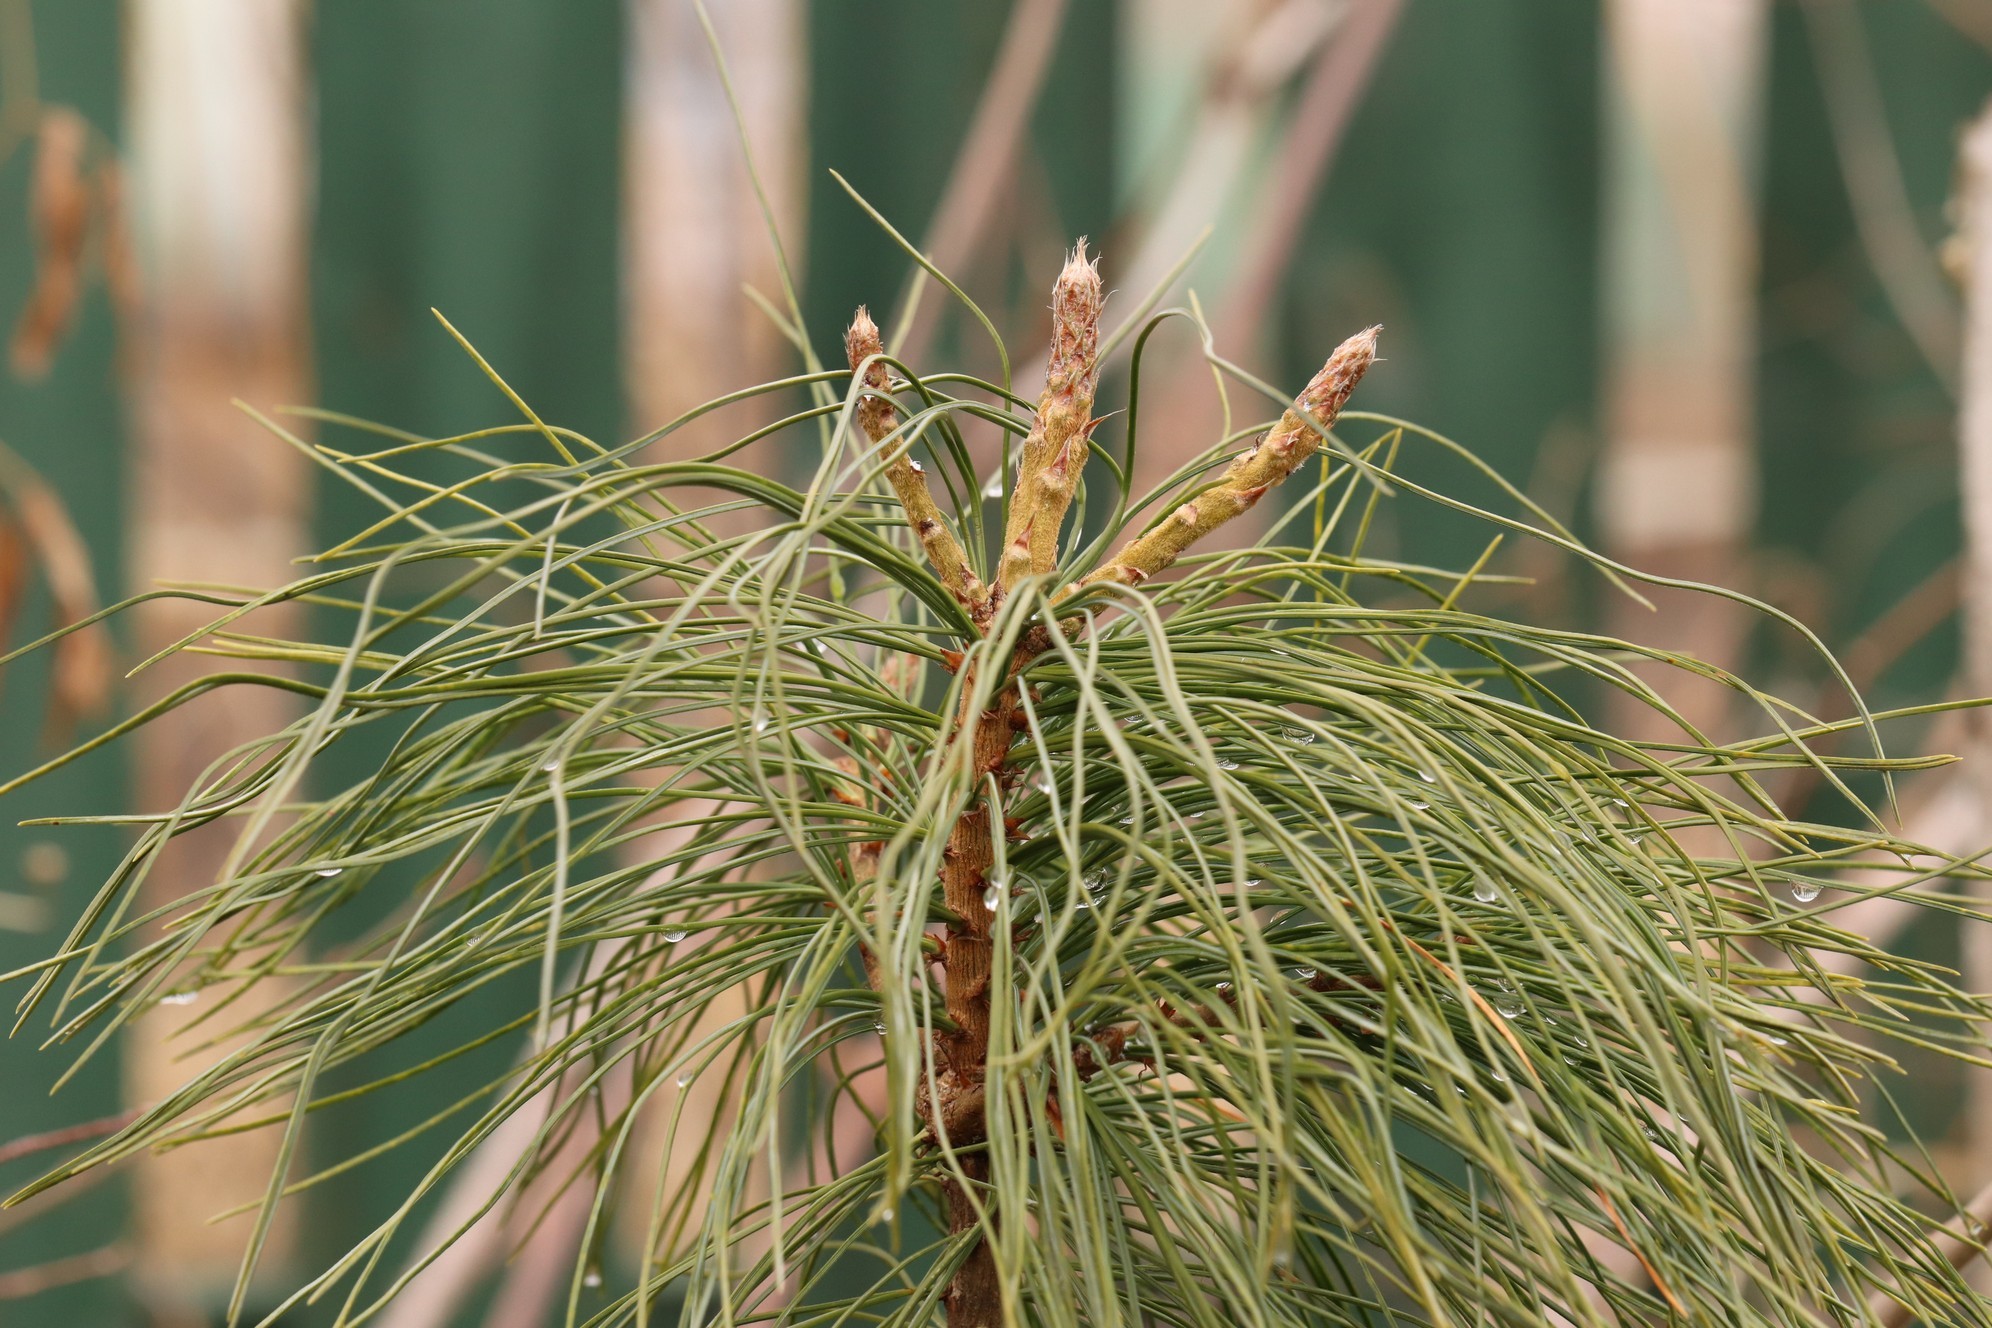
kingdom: Plantae
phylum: Tracheophyta
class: Pinopsida
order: Pinales
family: Pinaceae
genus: Pinus
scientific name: Pinus sibirica
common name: Siberian pine
